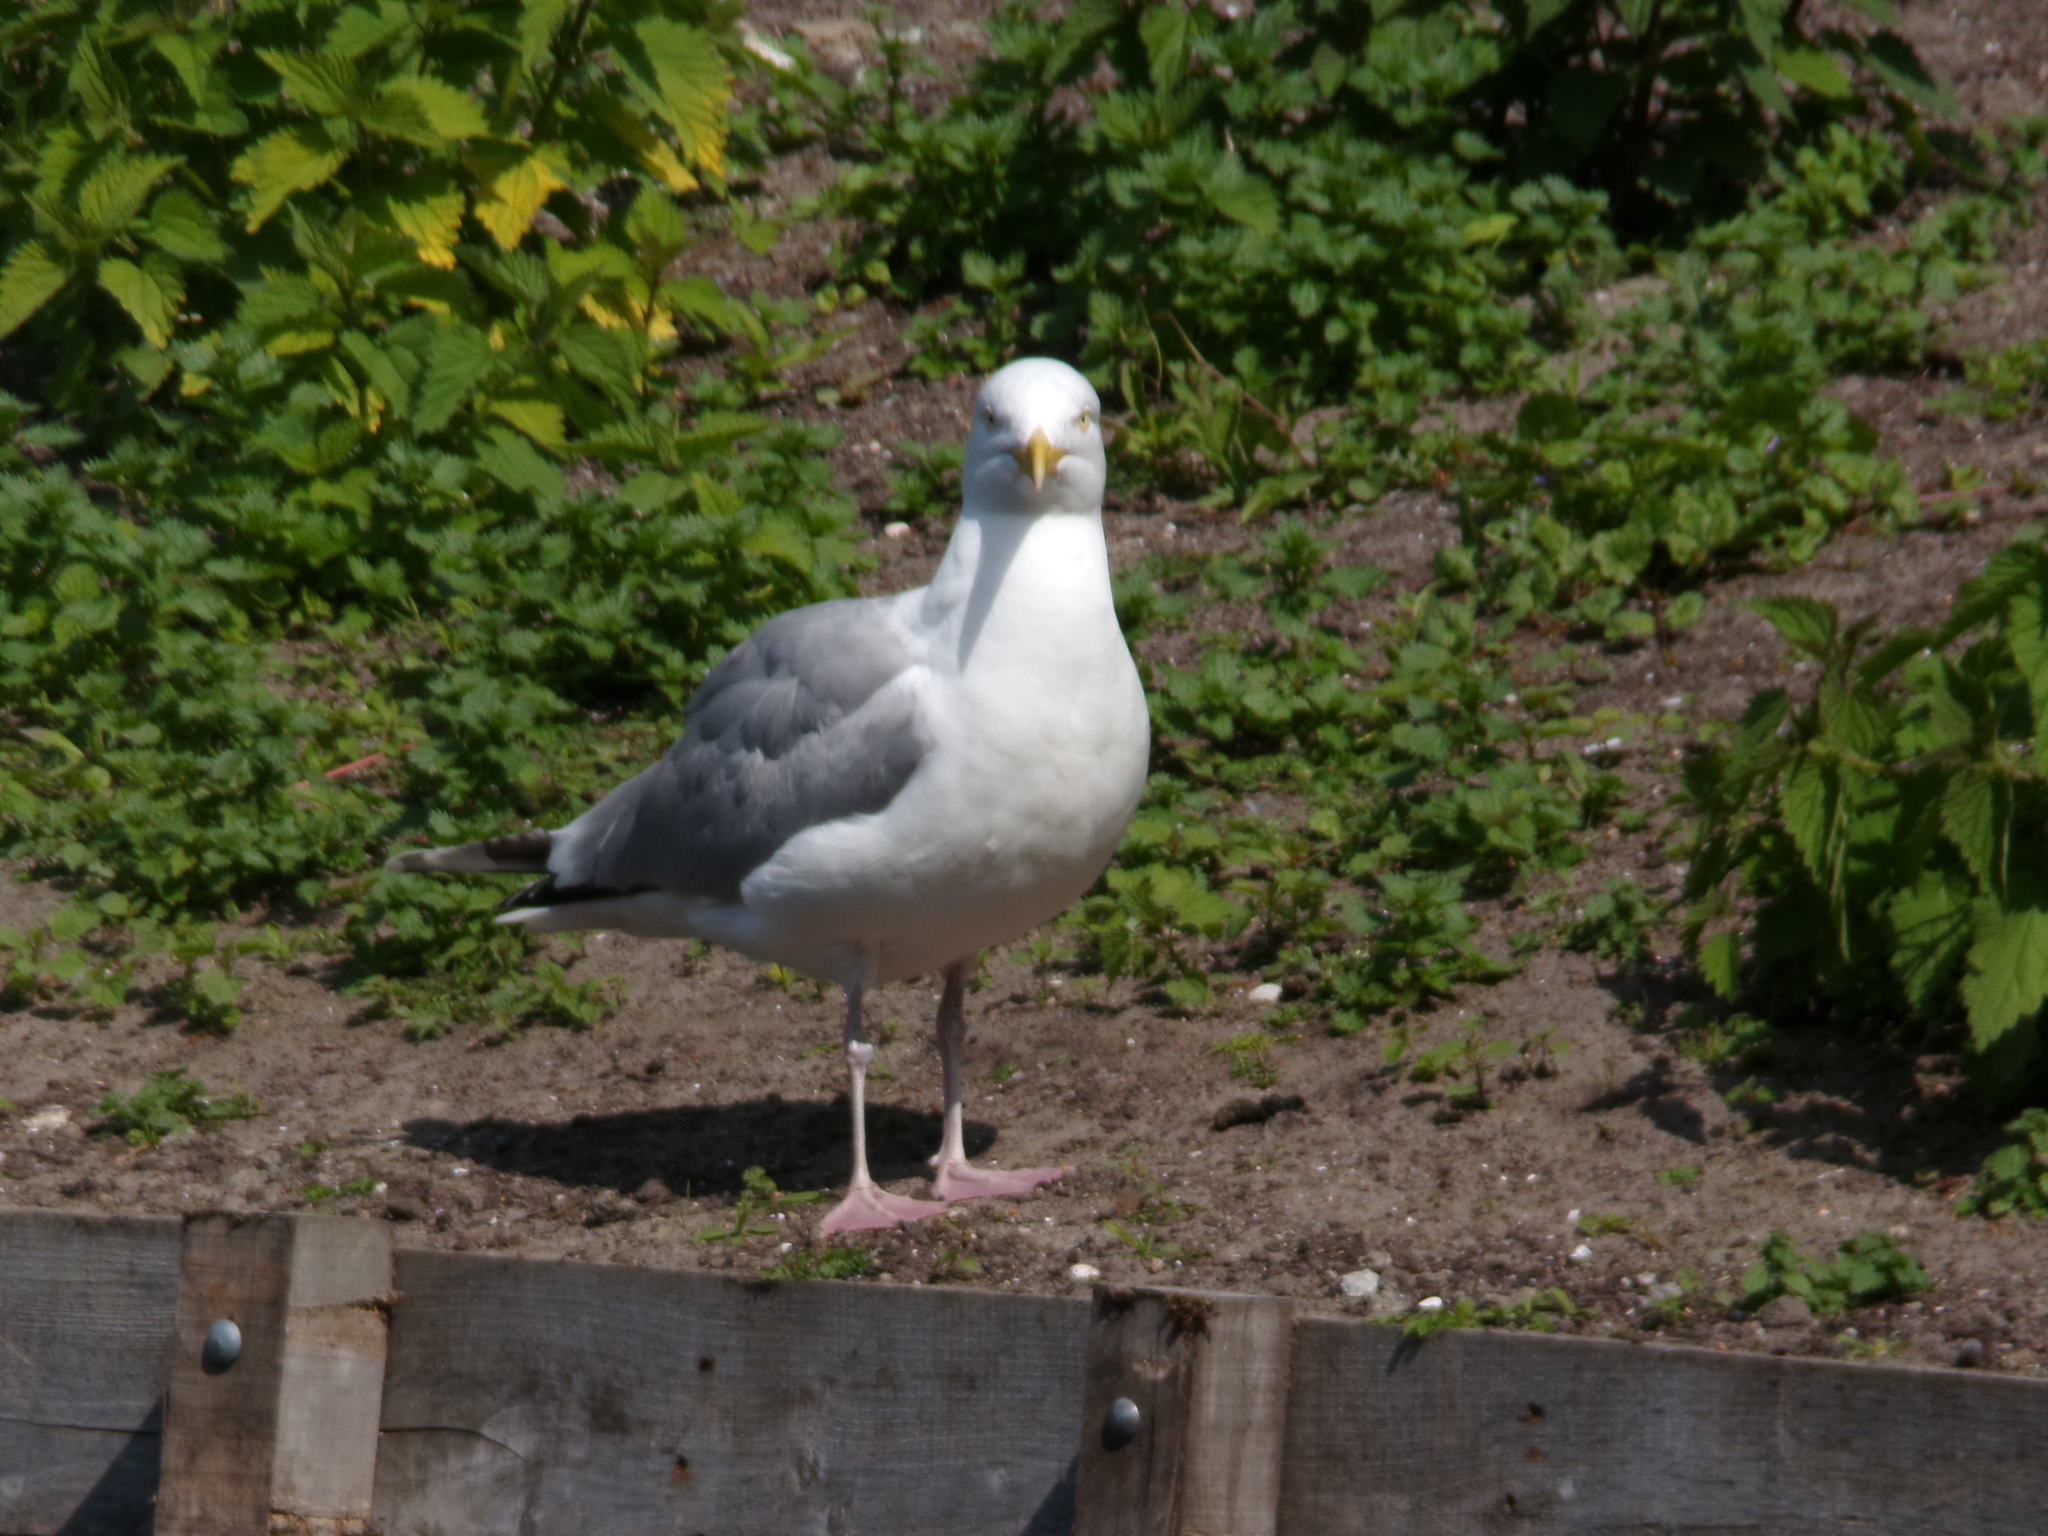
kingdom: Animalia
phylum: Chordata
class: Aves
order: Charadriiformes
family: Laridae
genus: Larus
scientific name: Larus argentatus
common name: Herring gull
